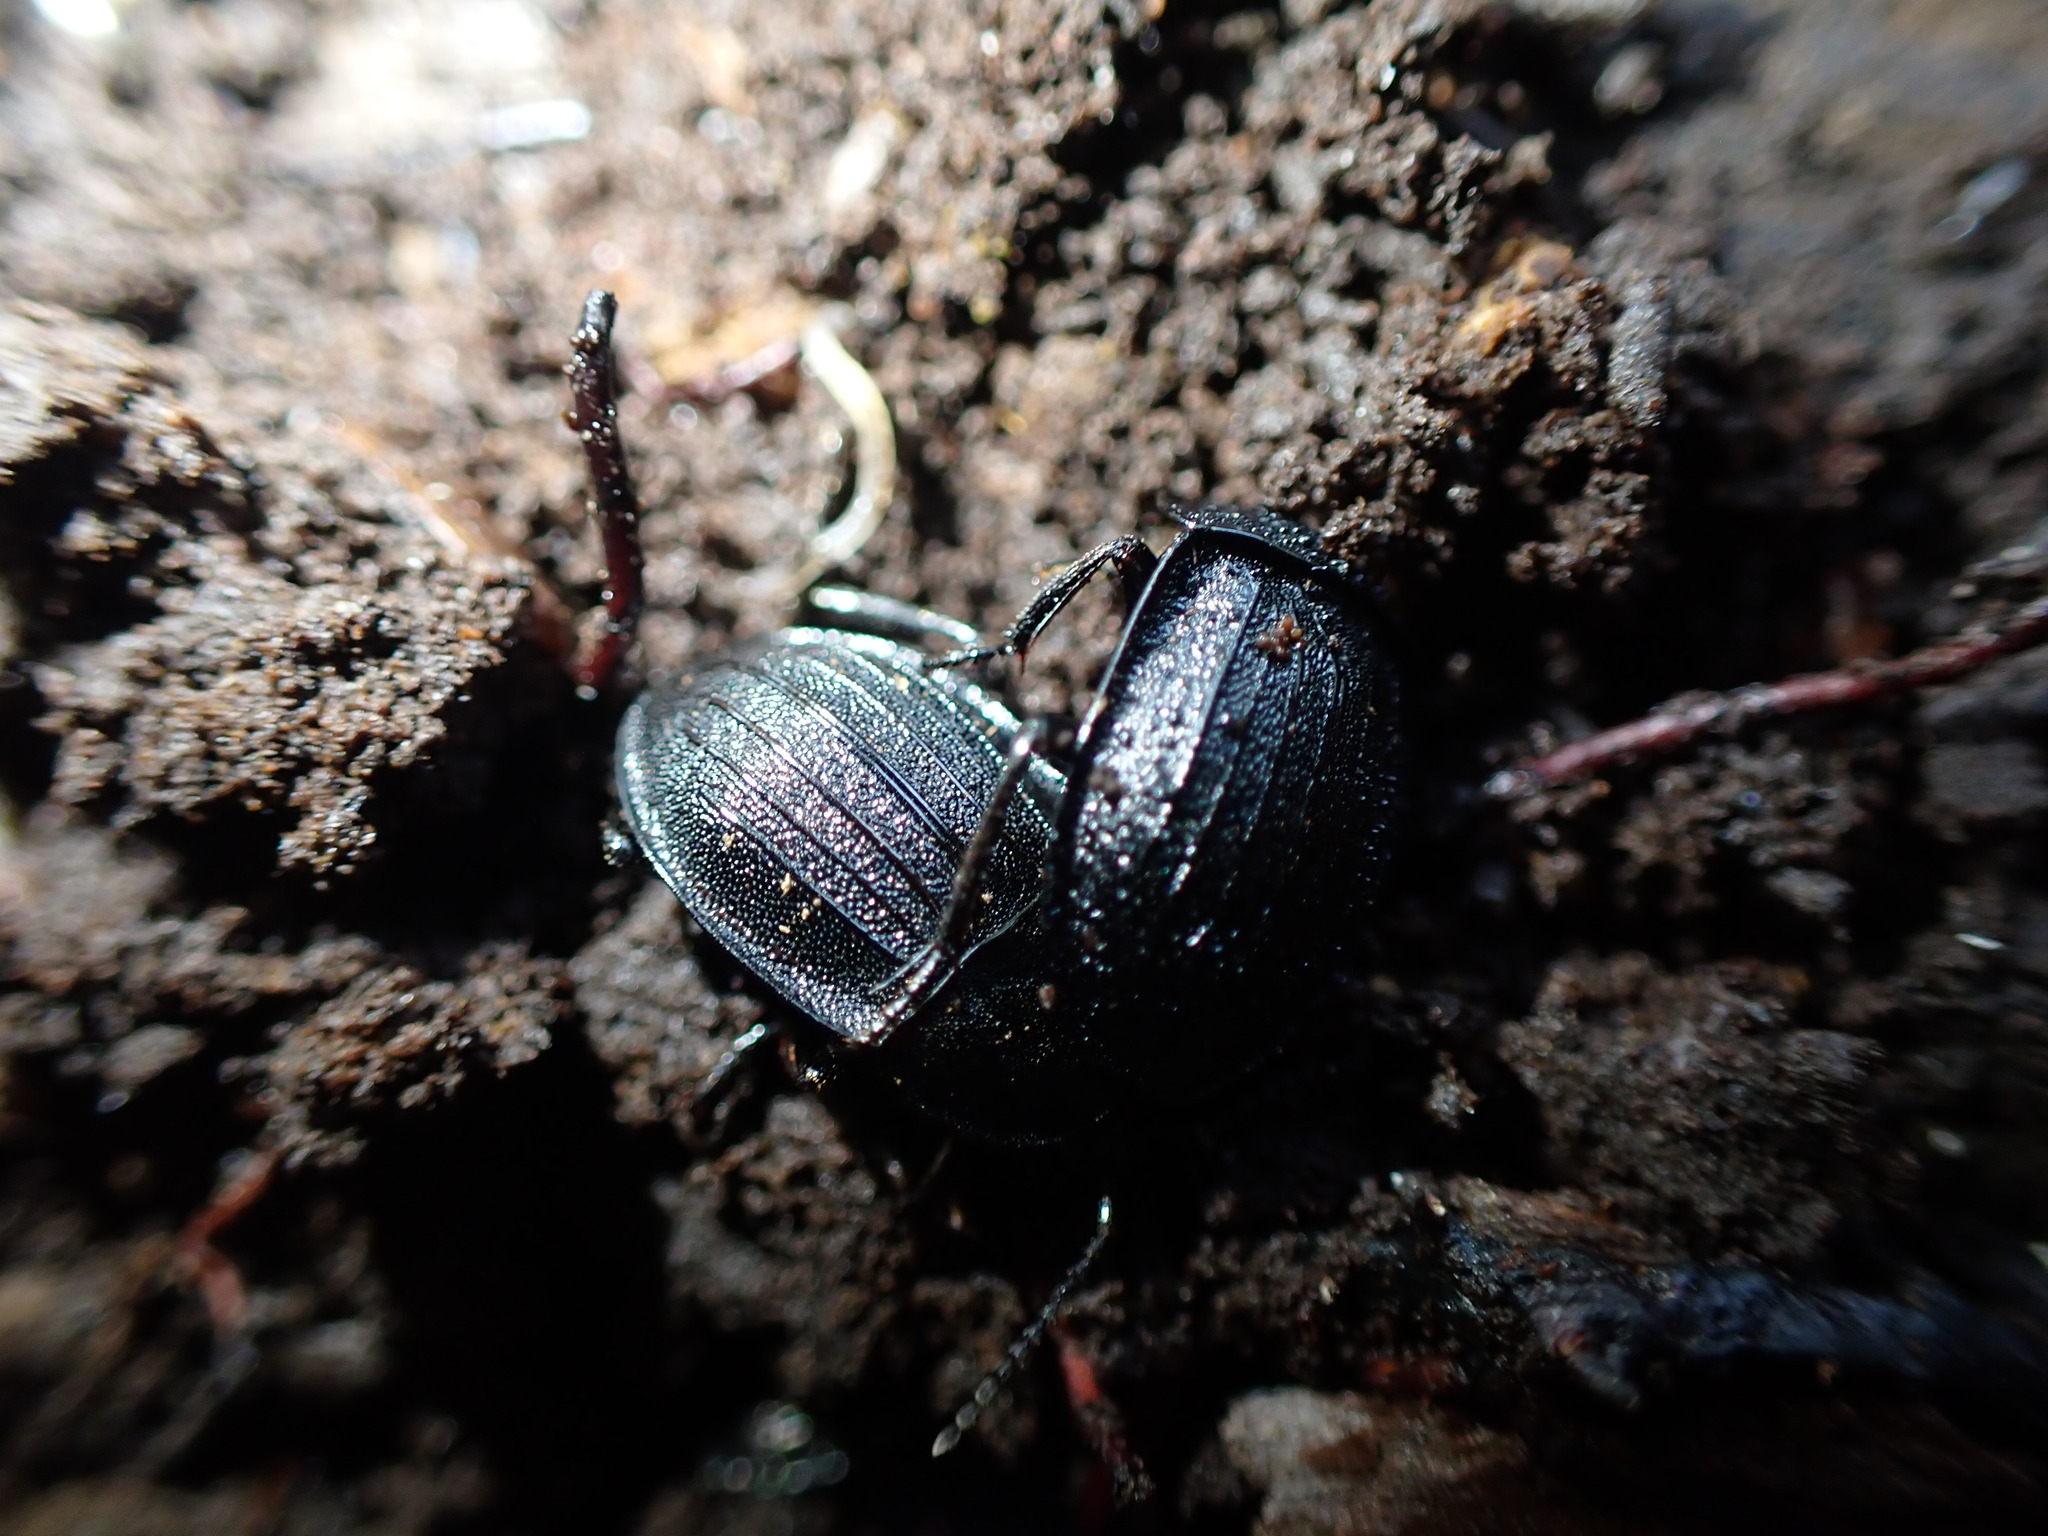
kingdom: Animalia
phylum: Arthropoda
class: Insecta
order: Coleoptera
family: Staphylinidae
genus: Silpha
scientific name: Silpha atrata
